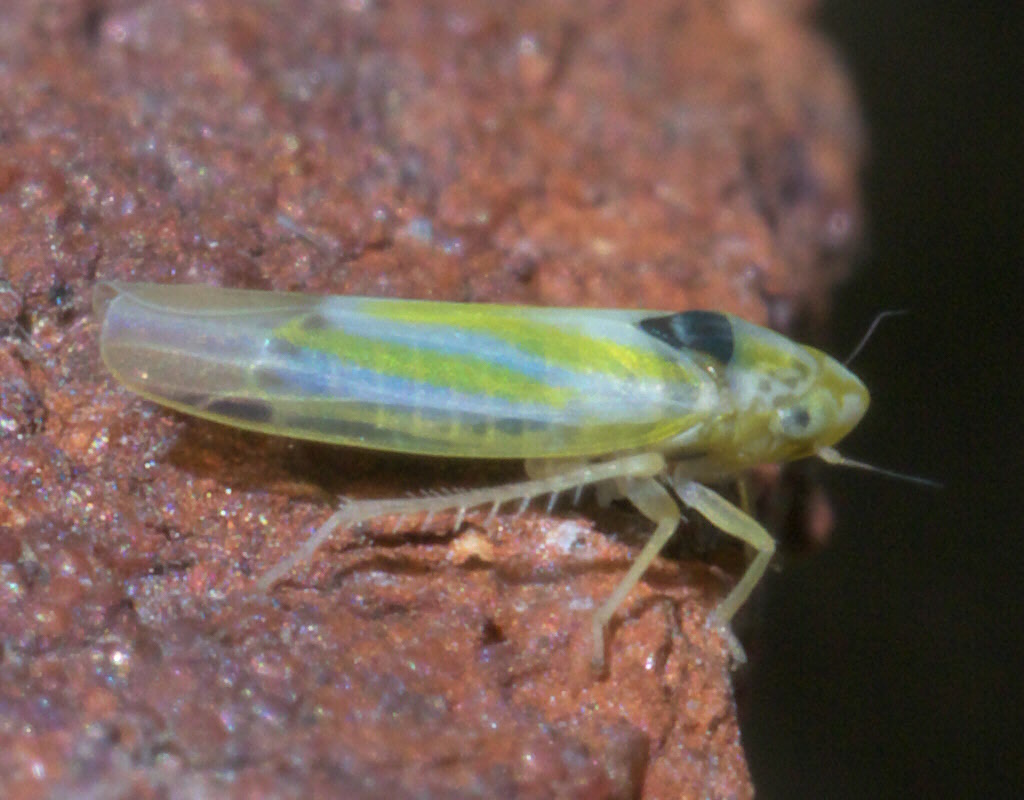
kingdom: Animalia
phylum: Arthropoda
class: Insecta
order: Hemiptera
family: Cicadellidae
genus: Erythridula
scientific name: Erythridula penenoeva
